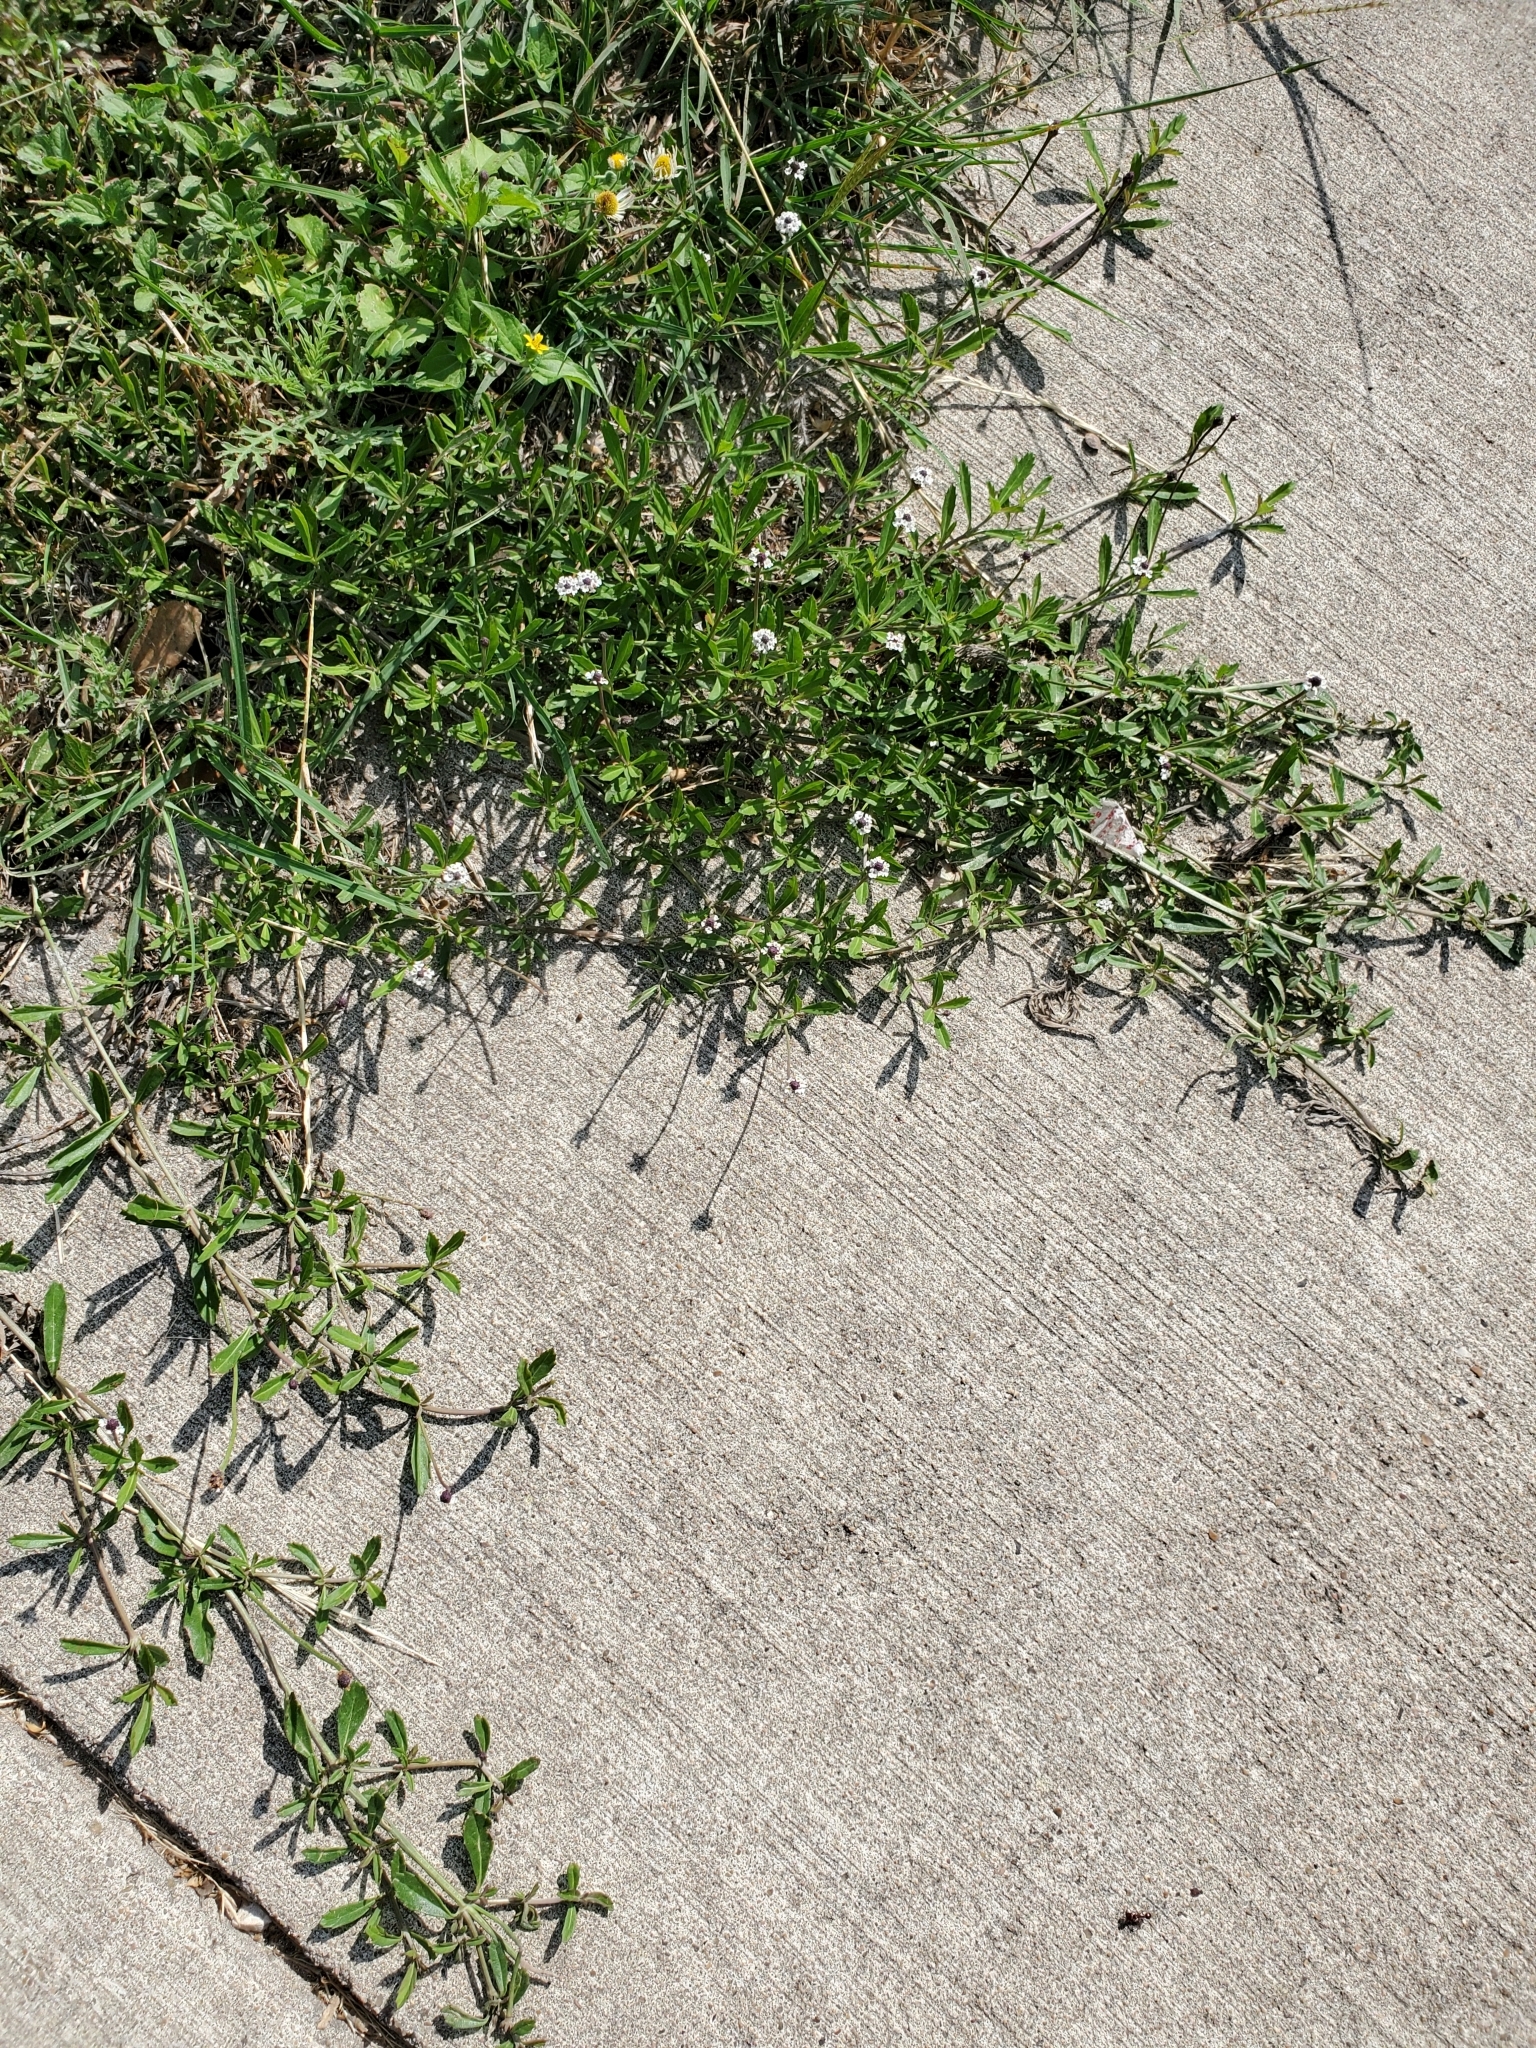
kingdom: Plantae
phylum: Tracheophyta
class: Magnoliopsida
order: Lamiales
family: Verbenaceae
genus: Phyla
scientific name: Phyla nodiflora
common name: Frogfruit
